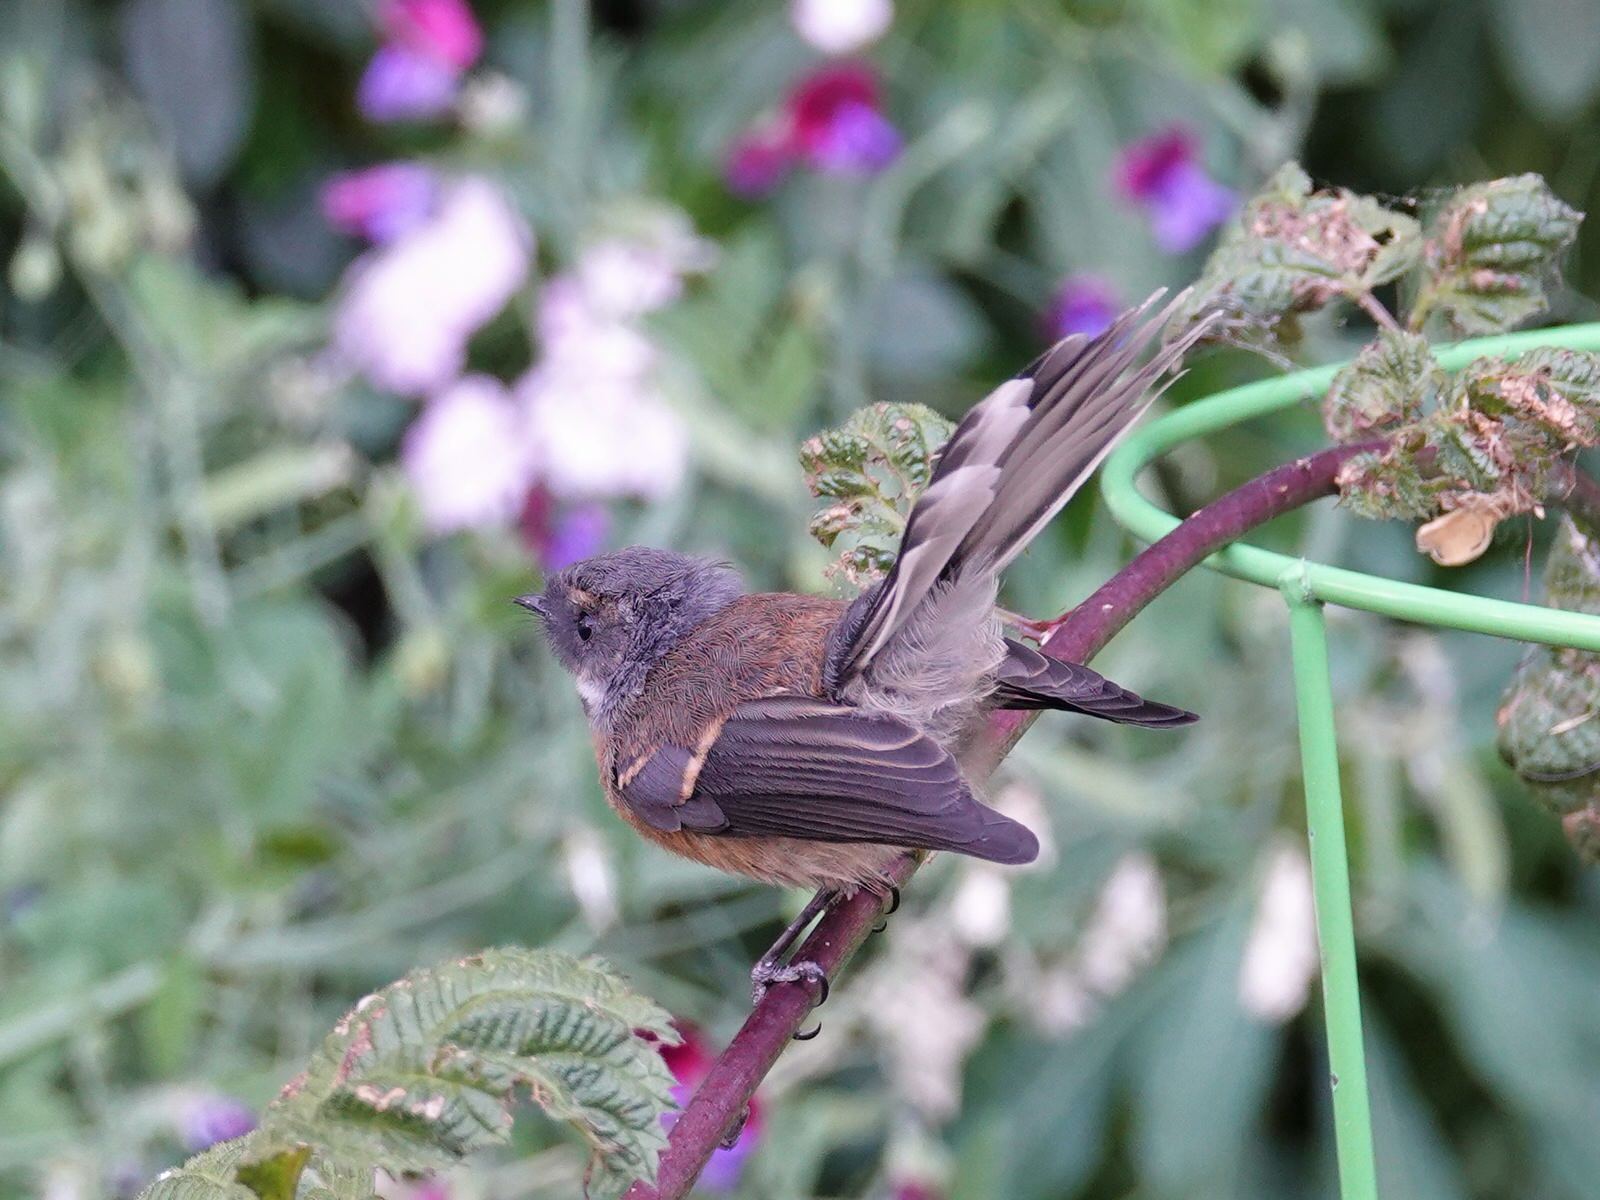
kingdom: Animalia
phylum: Chordata
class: Aves
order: Passeriformes
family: Rhipiduridae
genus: Rhipidura
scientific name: Rhipidura fuliginosa
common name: New zealand fantail
